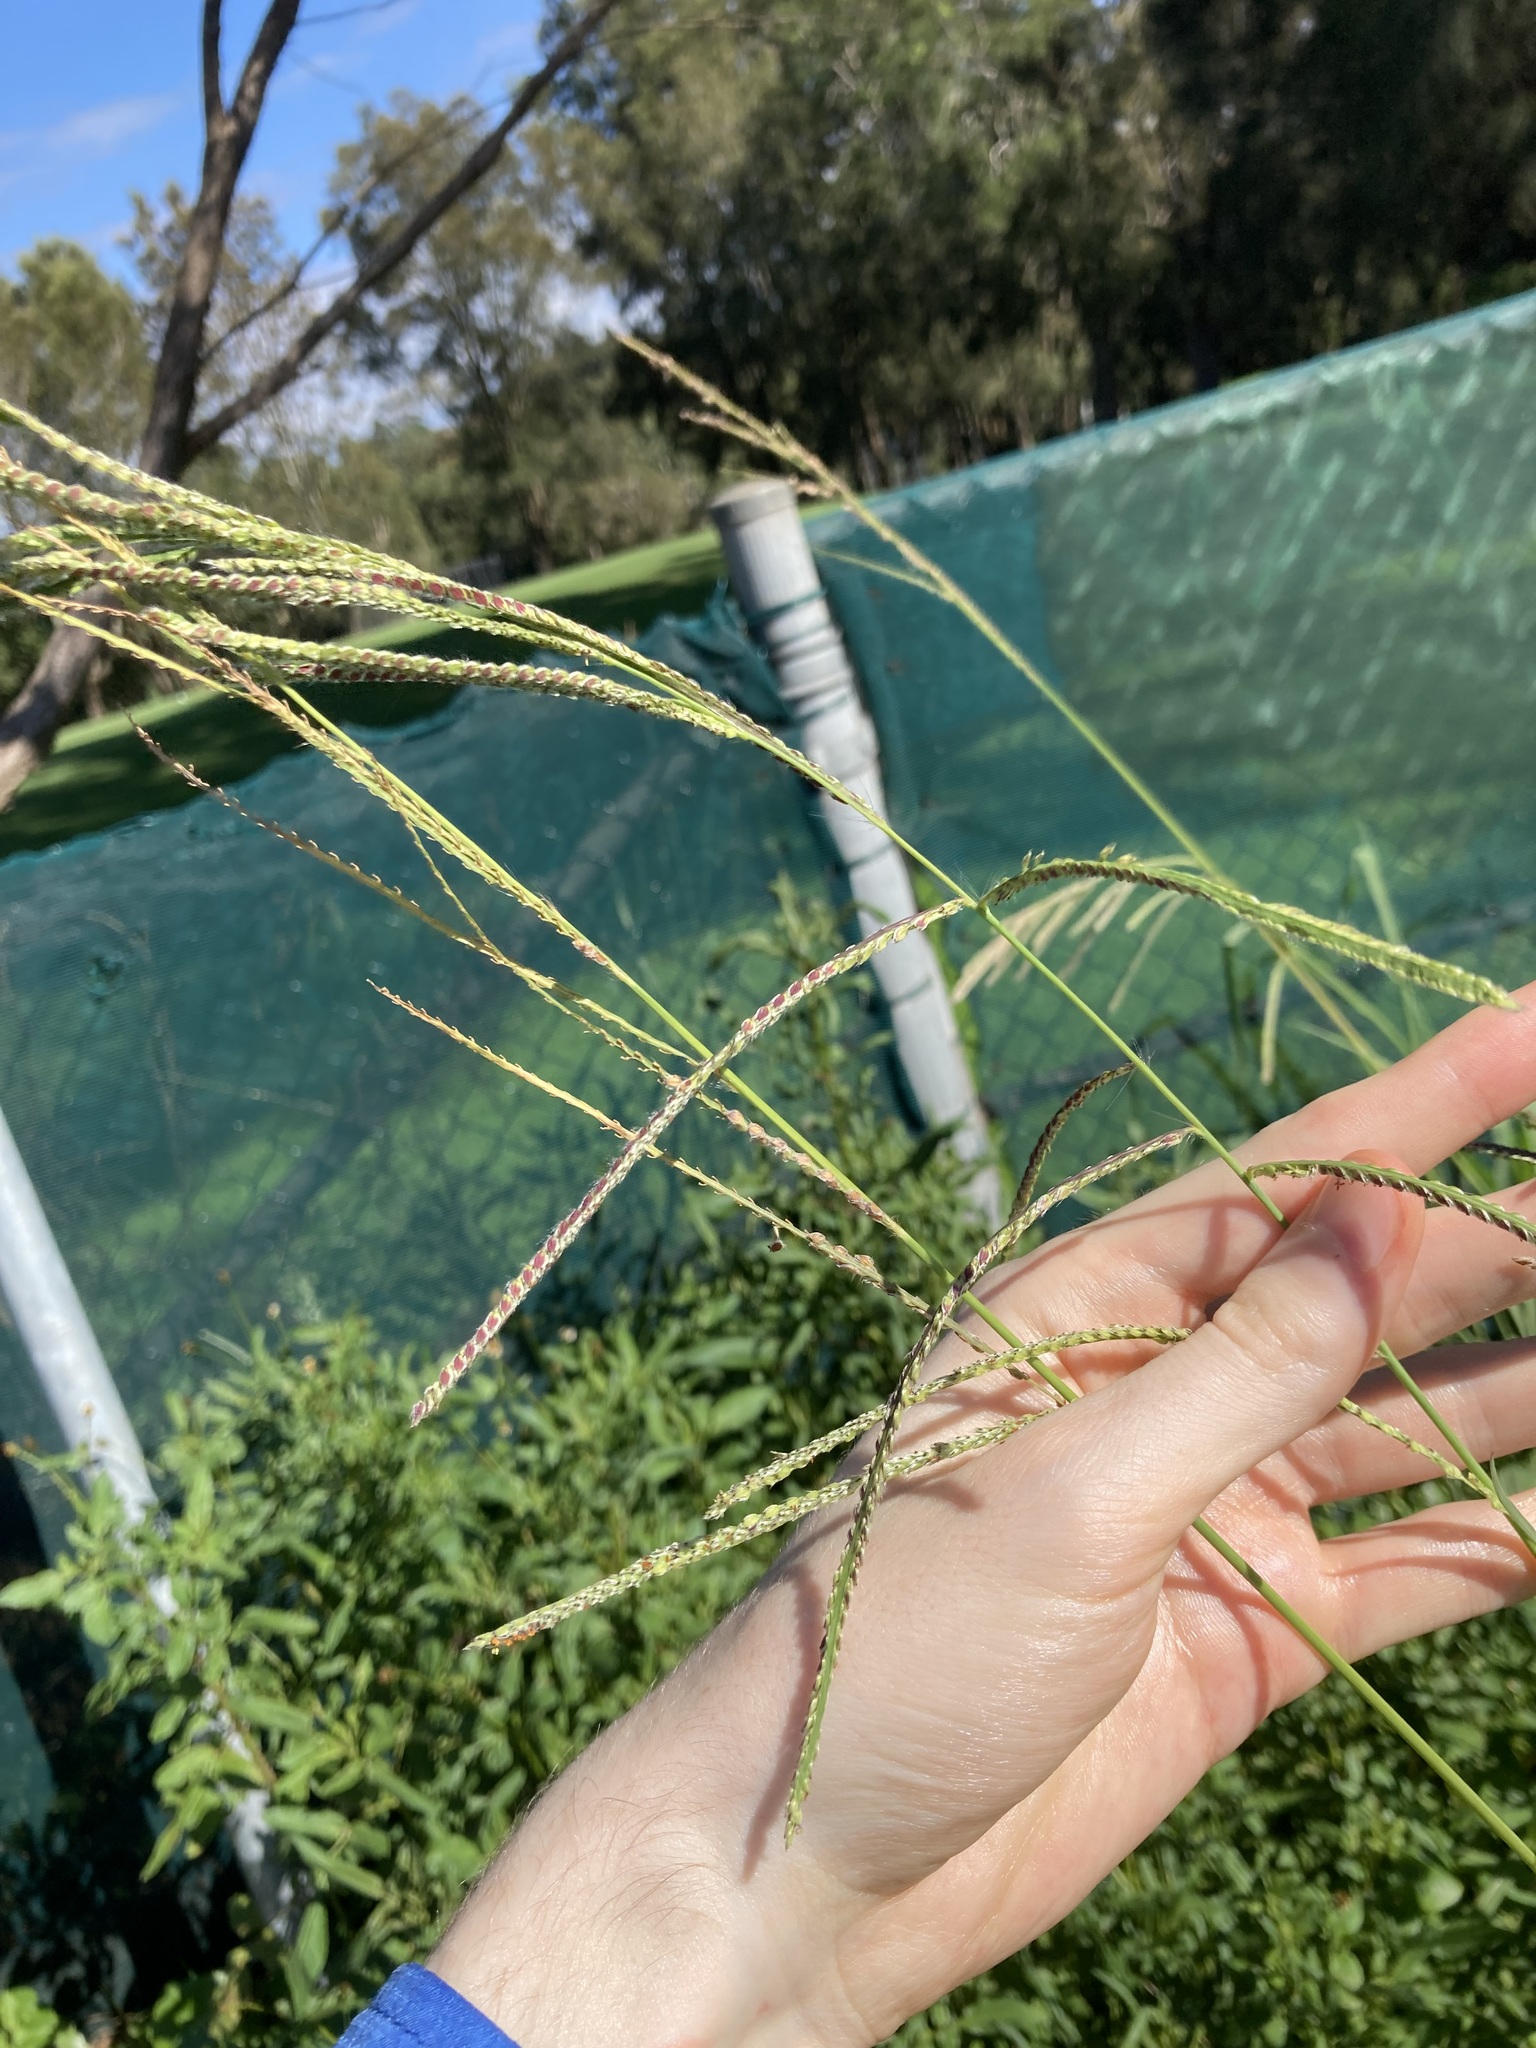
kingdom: Plantae
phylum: Tracheophyta
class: Liliopsida
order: Poales
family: Poaceae
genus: Paspalum
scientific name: Paspalum urvillei
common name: Vasey's grass
